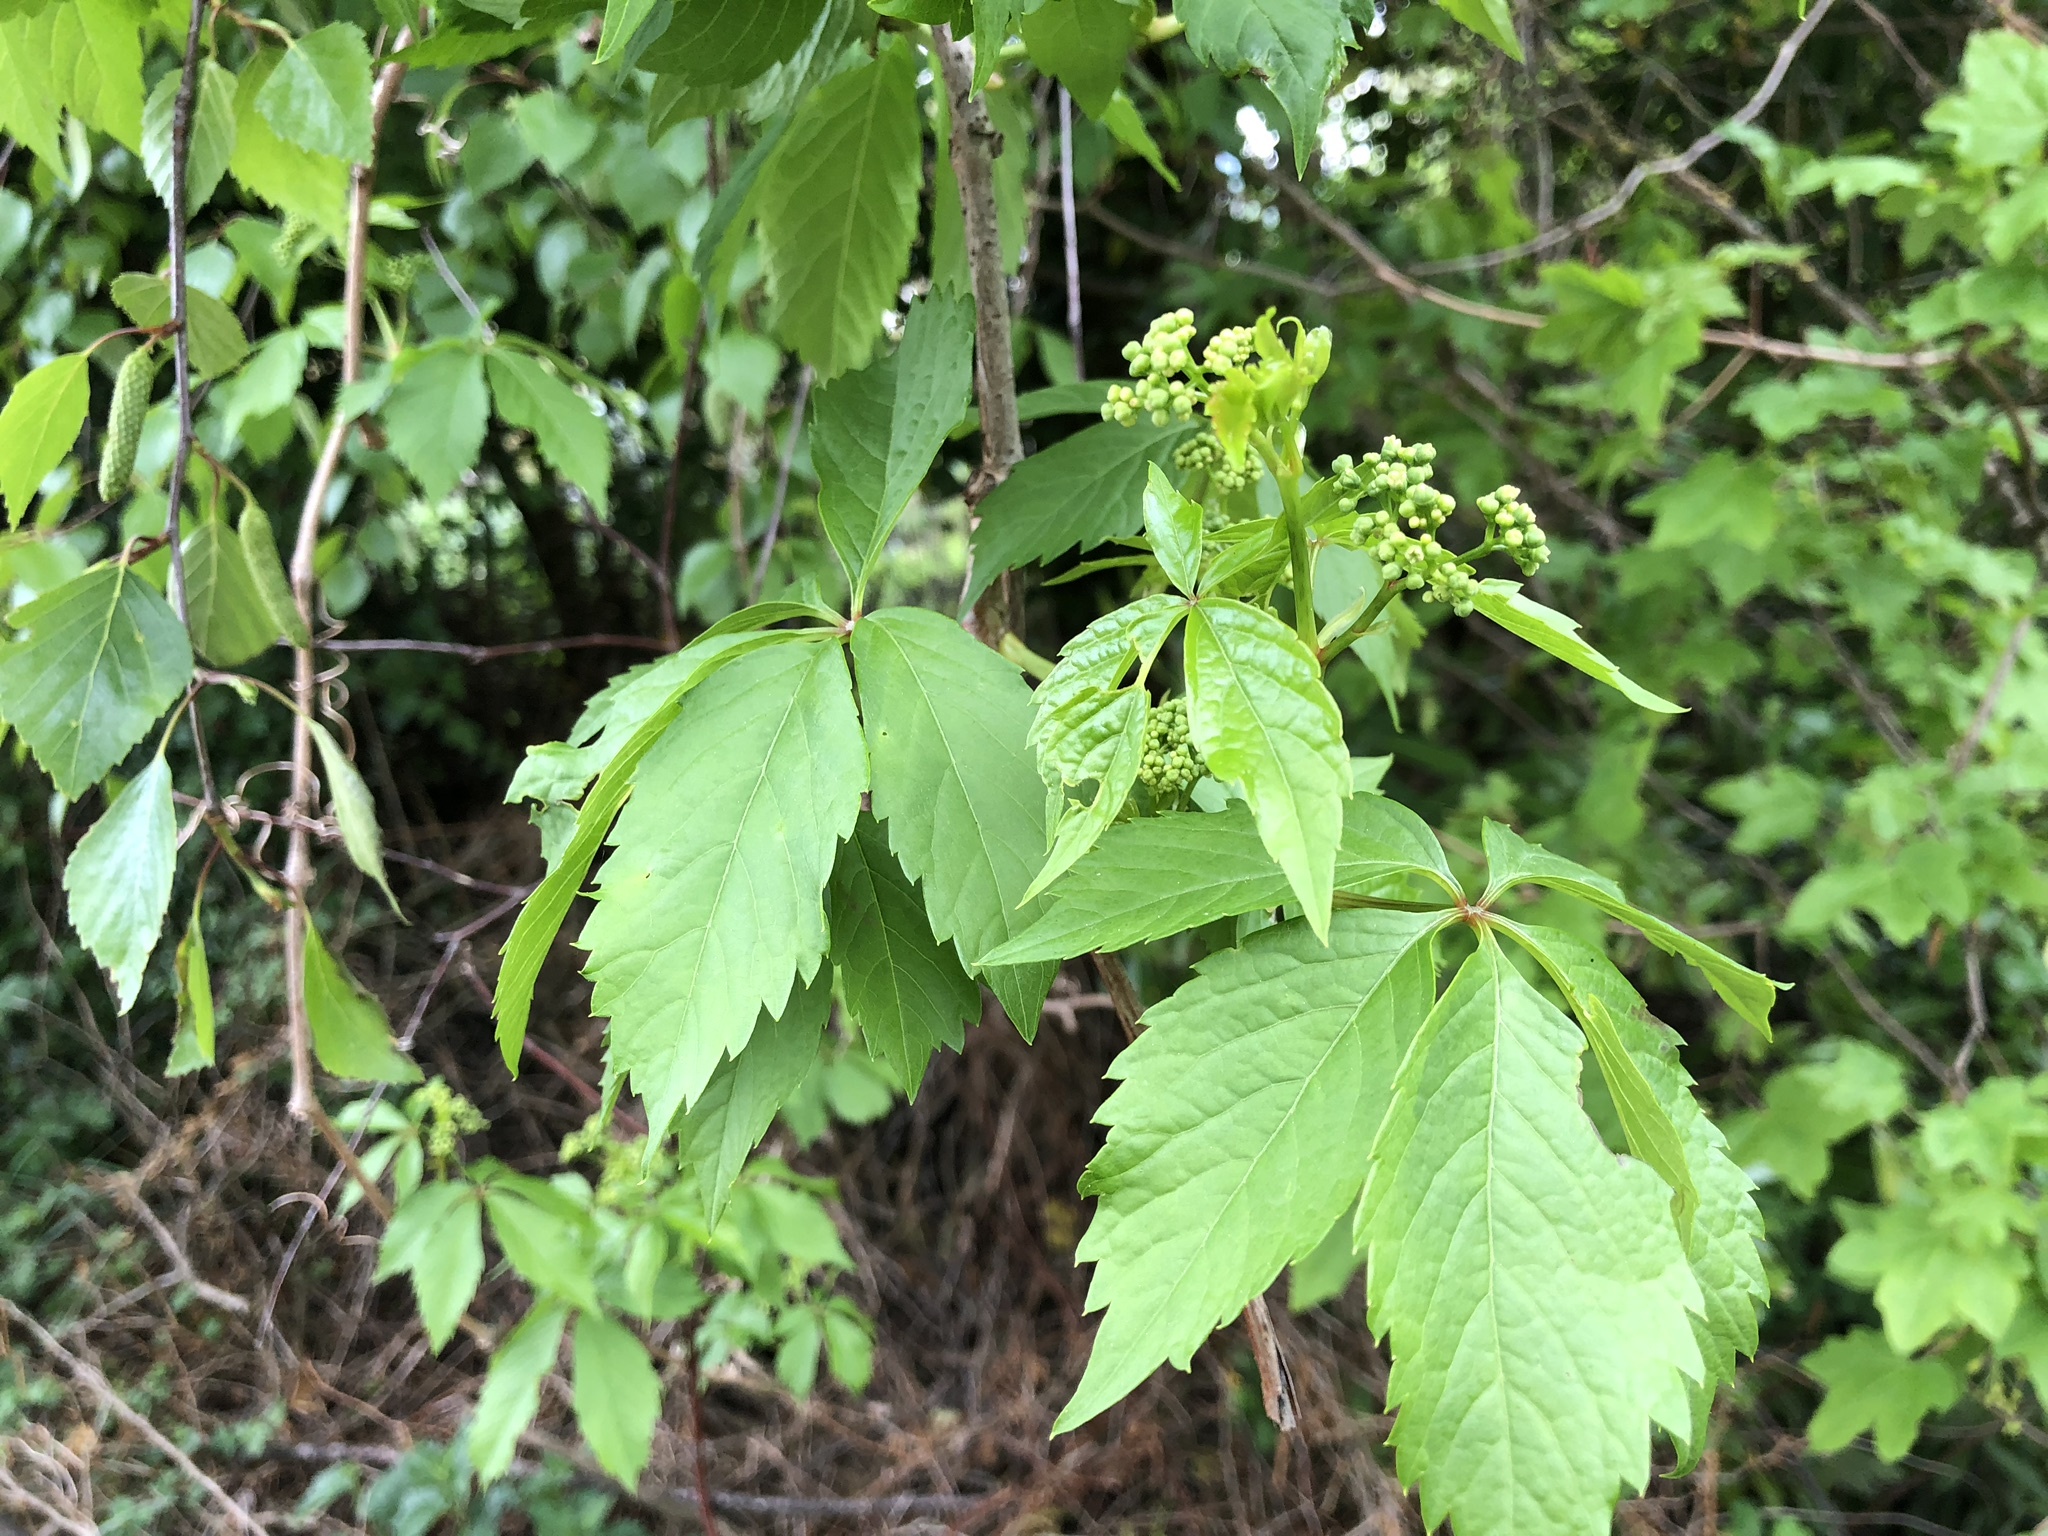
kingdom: Plantae
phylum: Tracheophyta
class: Magnoliopsida
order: Vitales
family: Vitaceae
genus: Parthenocissus
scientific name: Parthenocissus quinquefolia
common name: Virginia-creeper
